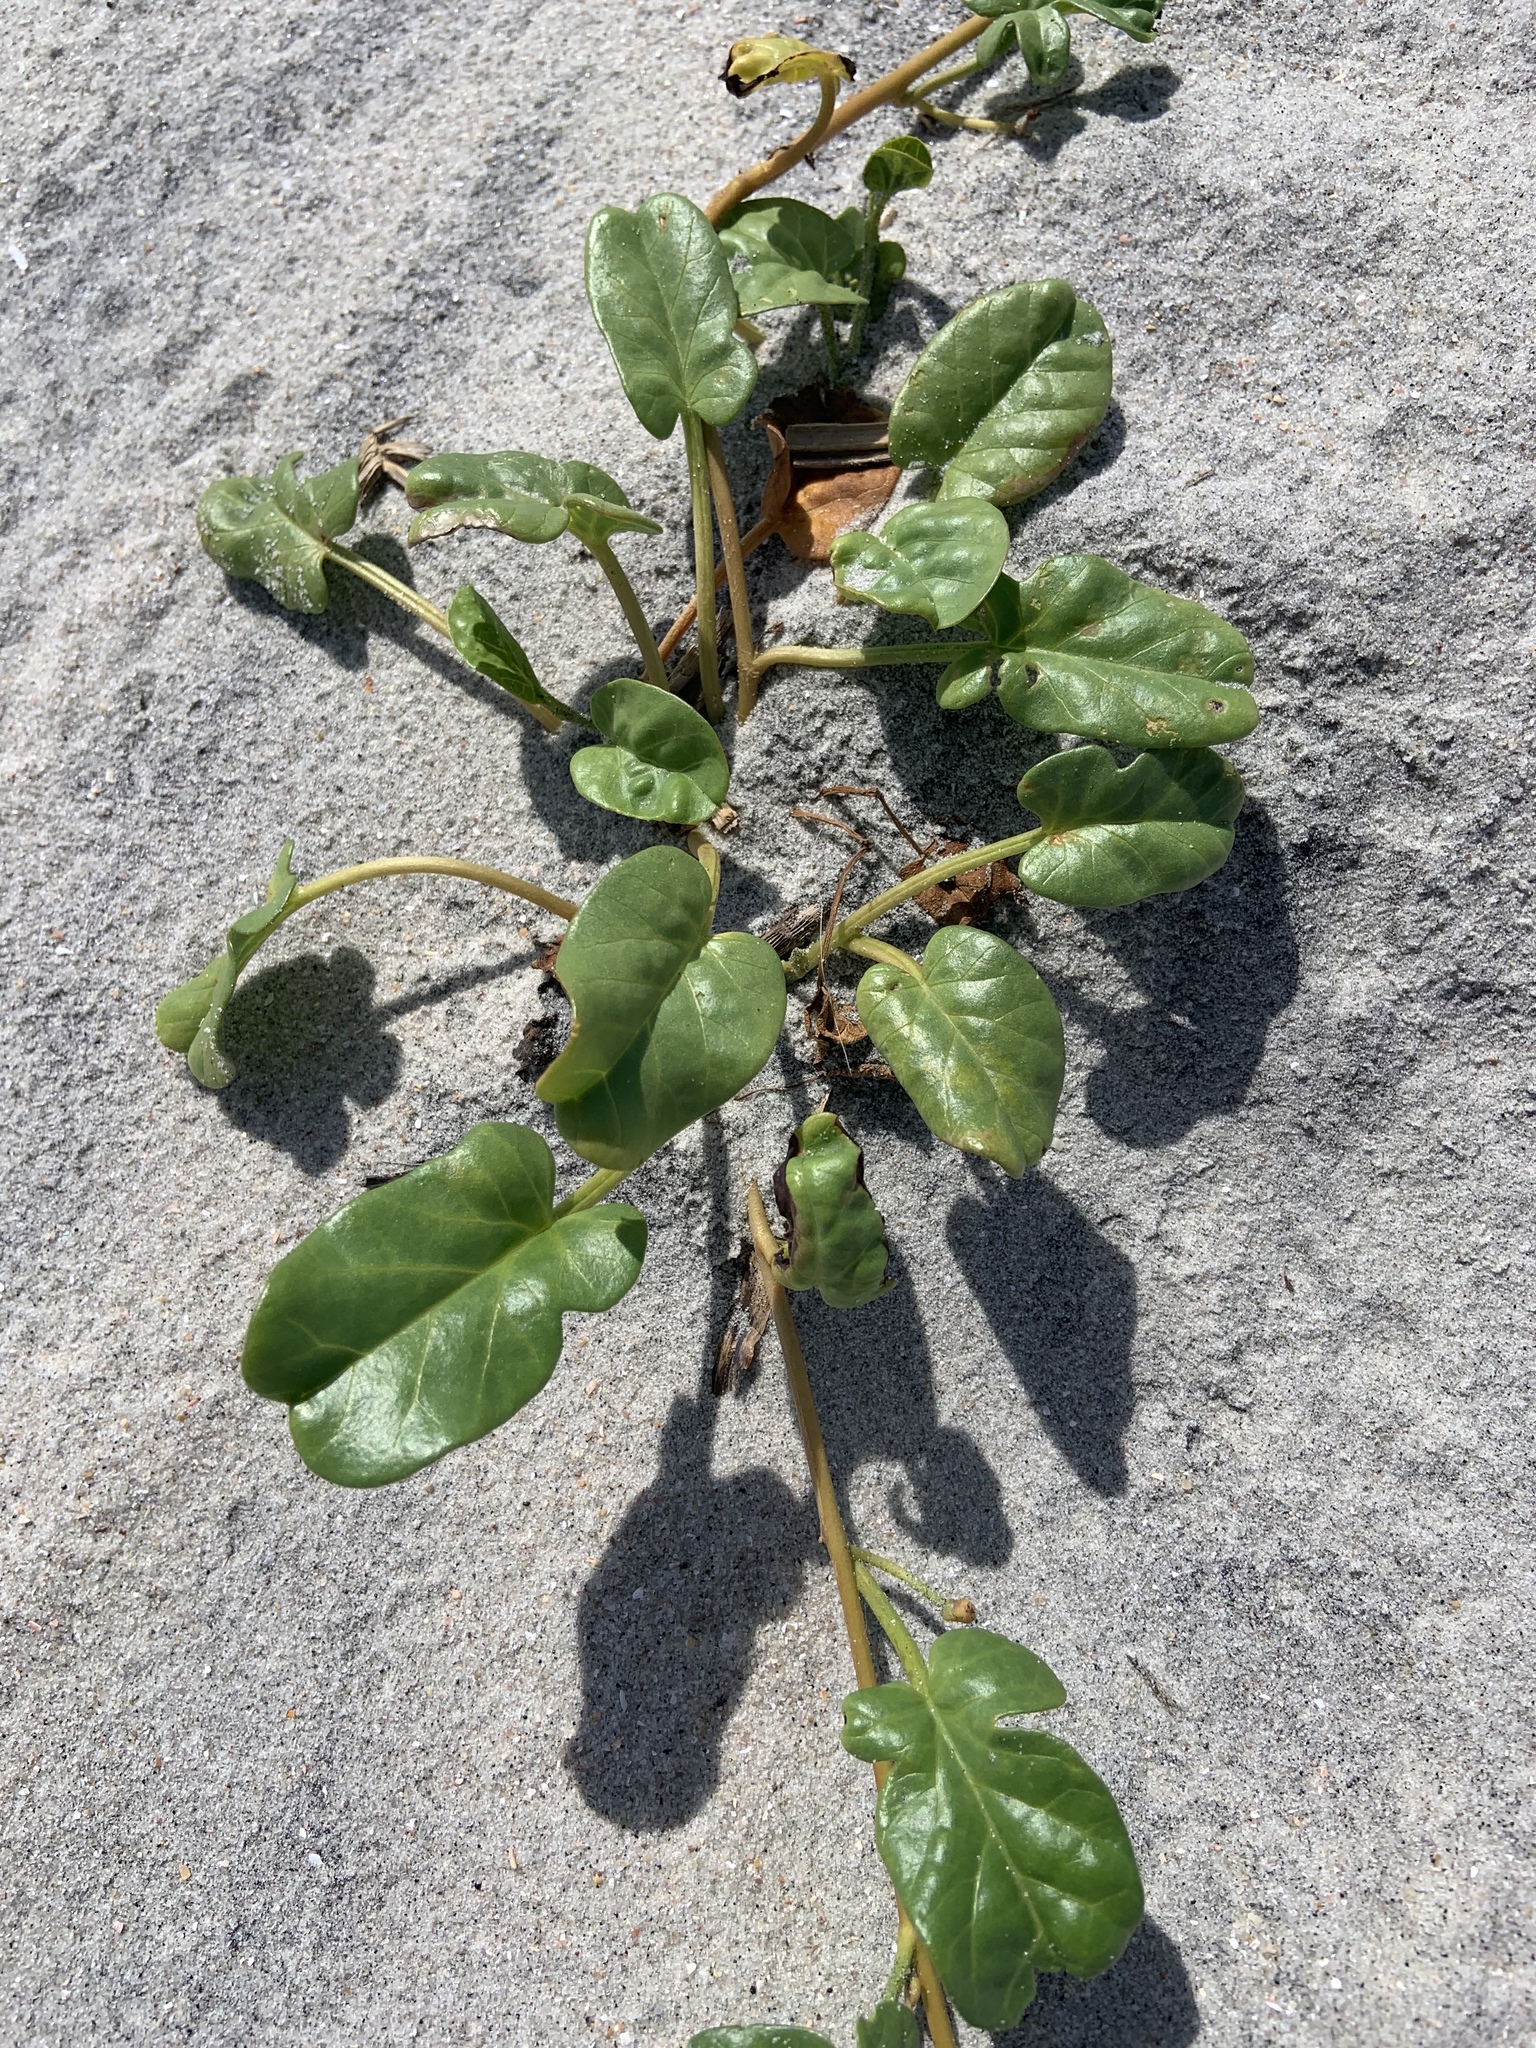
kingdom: Plantae
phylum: Tracheophyta
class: Magnoliopsida
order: Solanales
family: Convolvulaceae
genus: Ipomoea
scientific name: Ipomoea imperati
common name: Fiddle-leaf morning-glory
